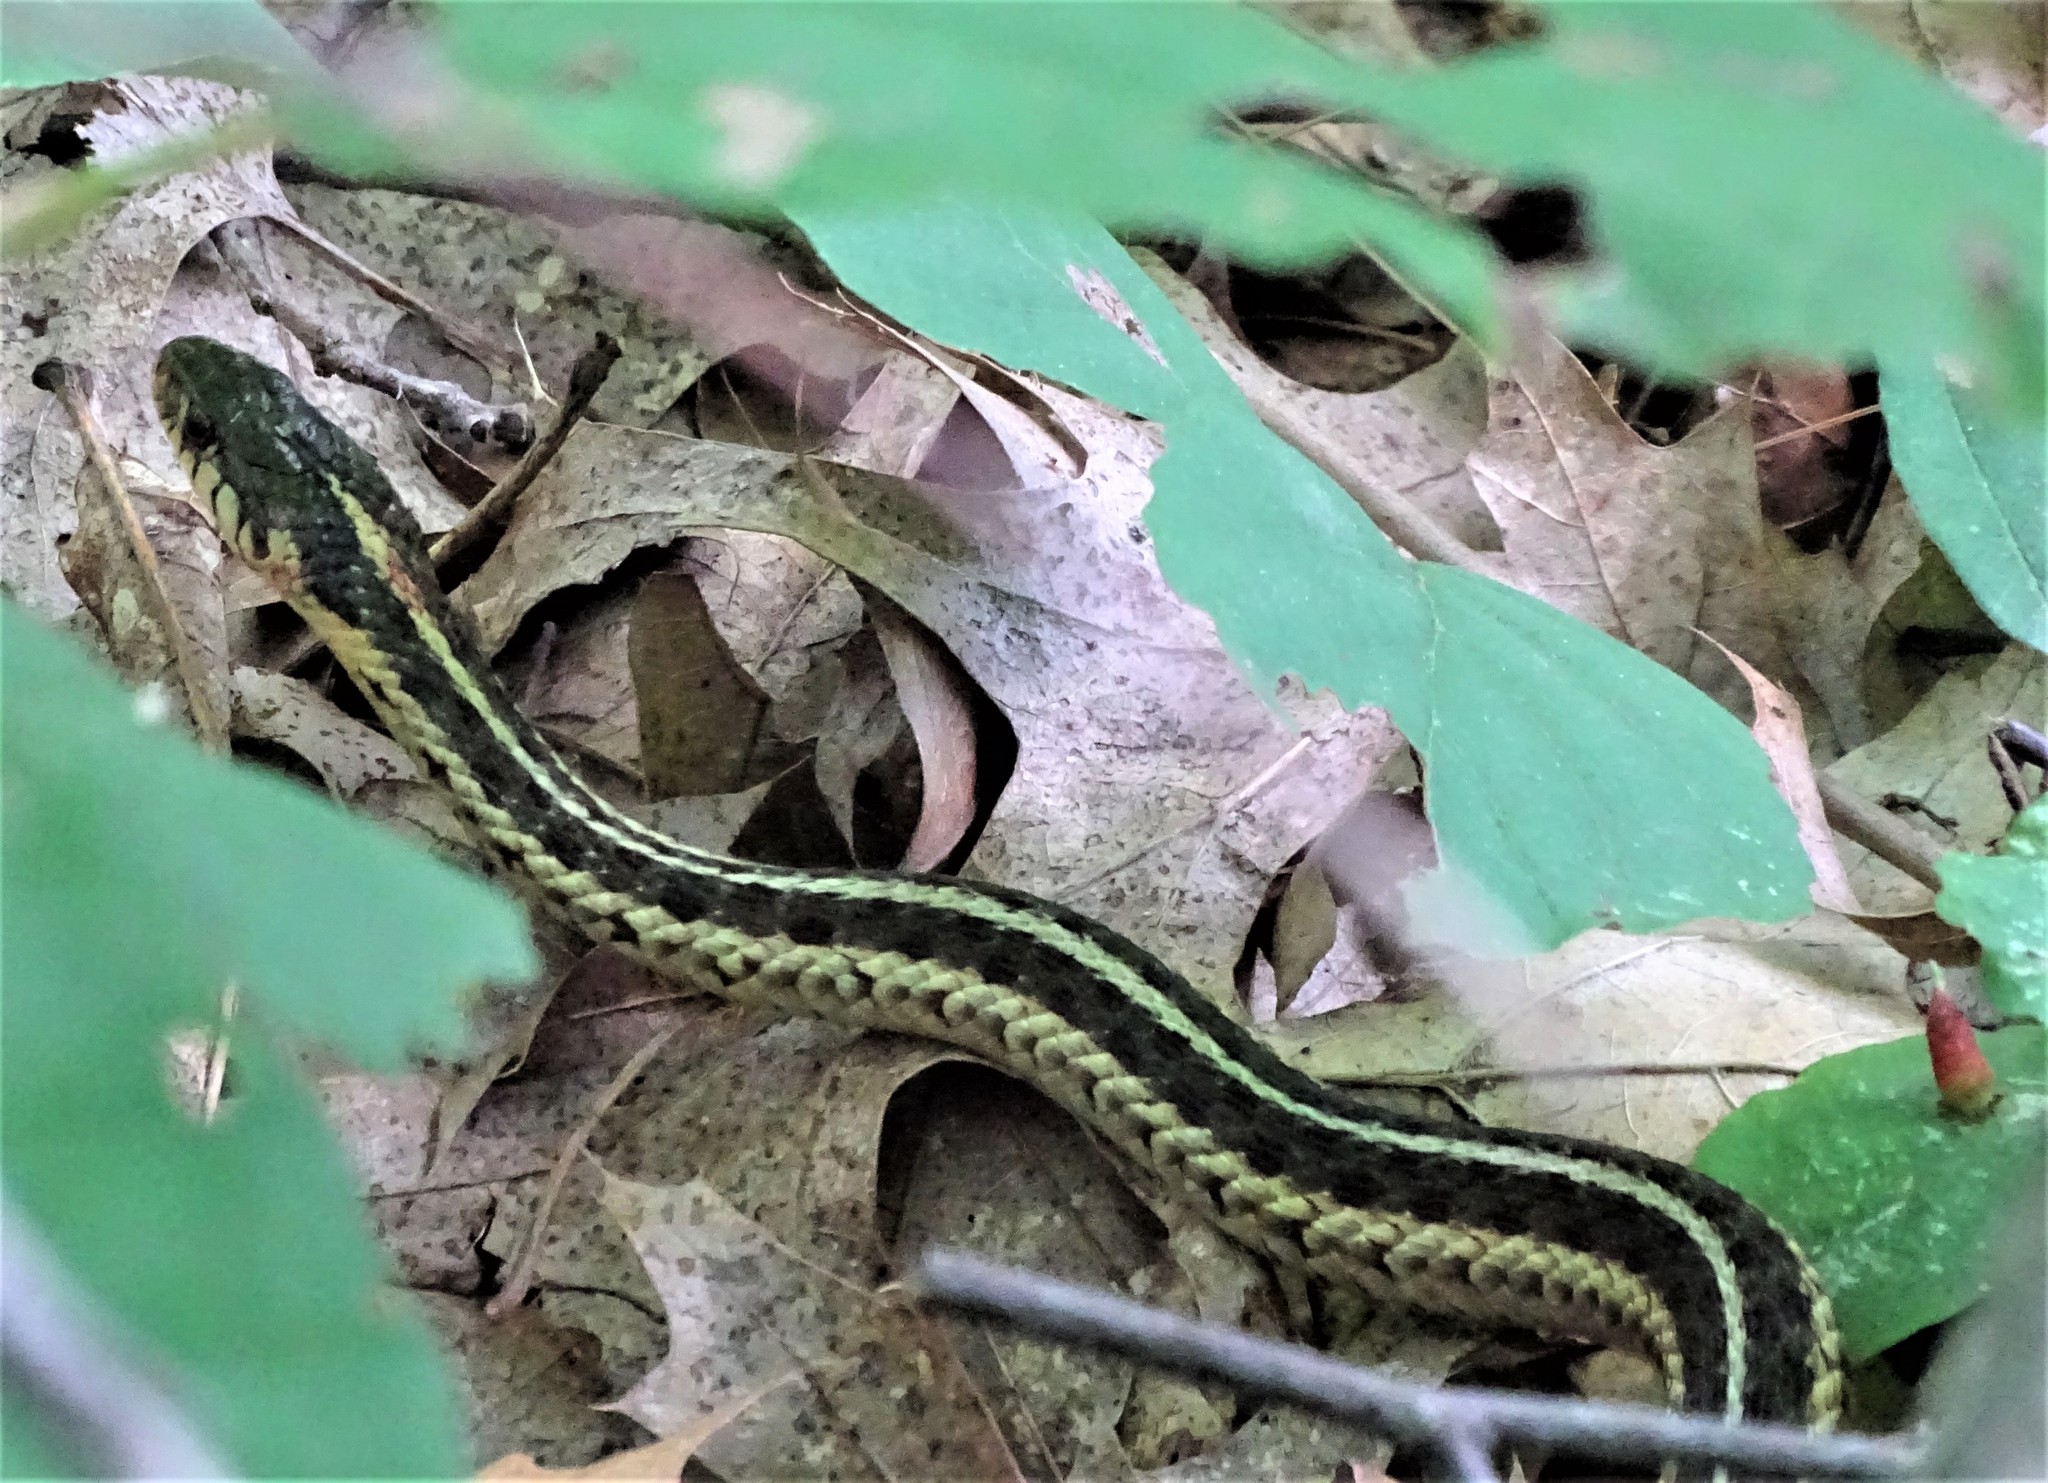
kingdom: Animalia
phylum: Chordata
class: Squamata
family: Colubridae
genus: Thamnophis
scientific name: Thamnophis sirtalis
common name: Common garter snake
